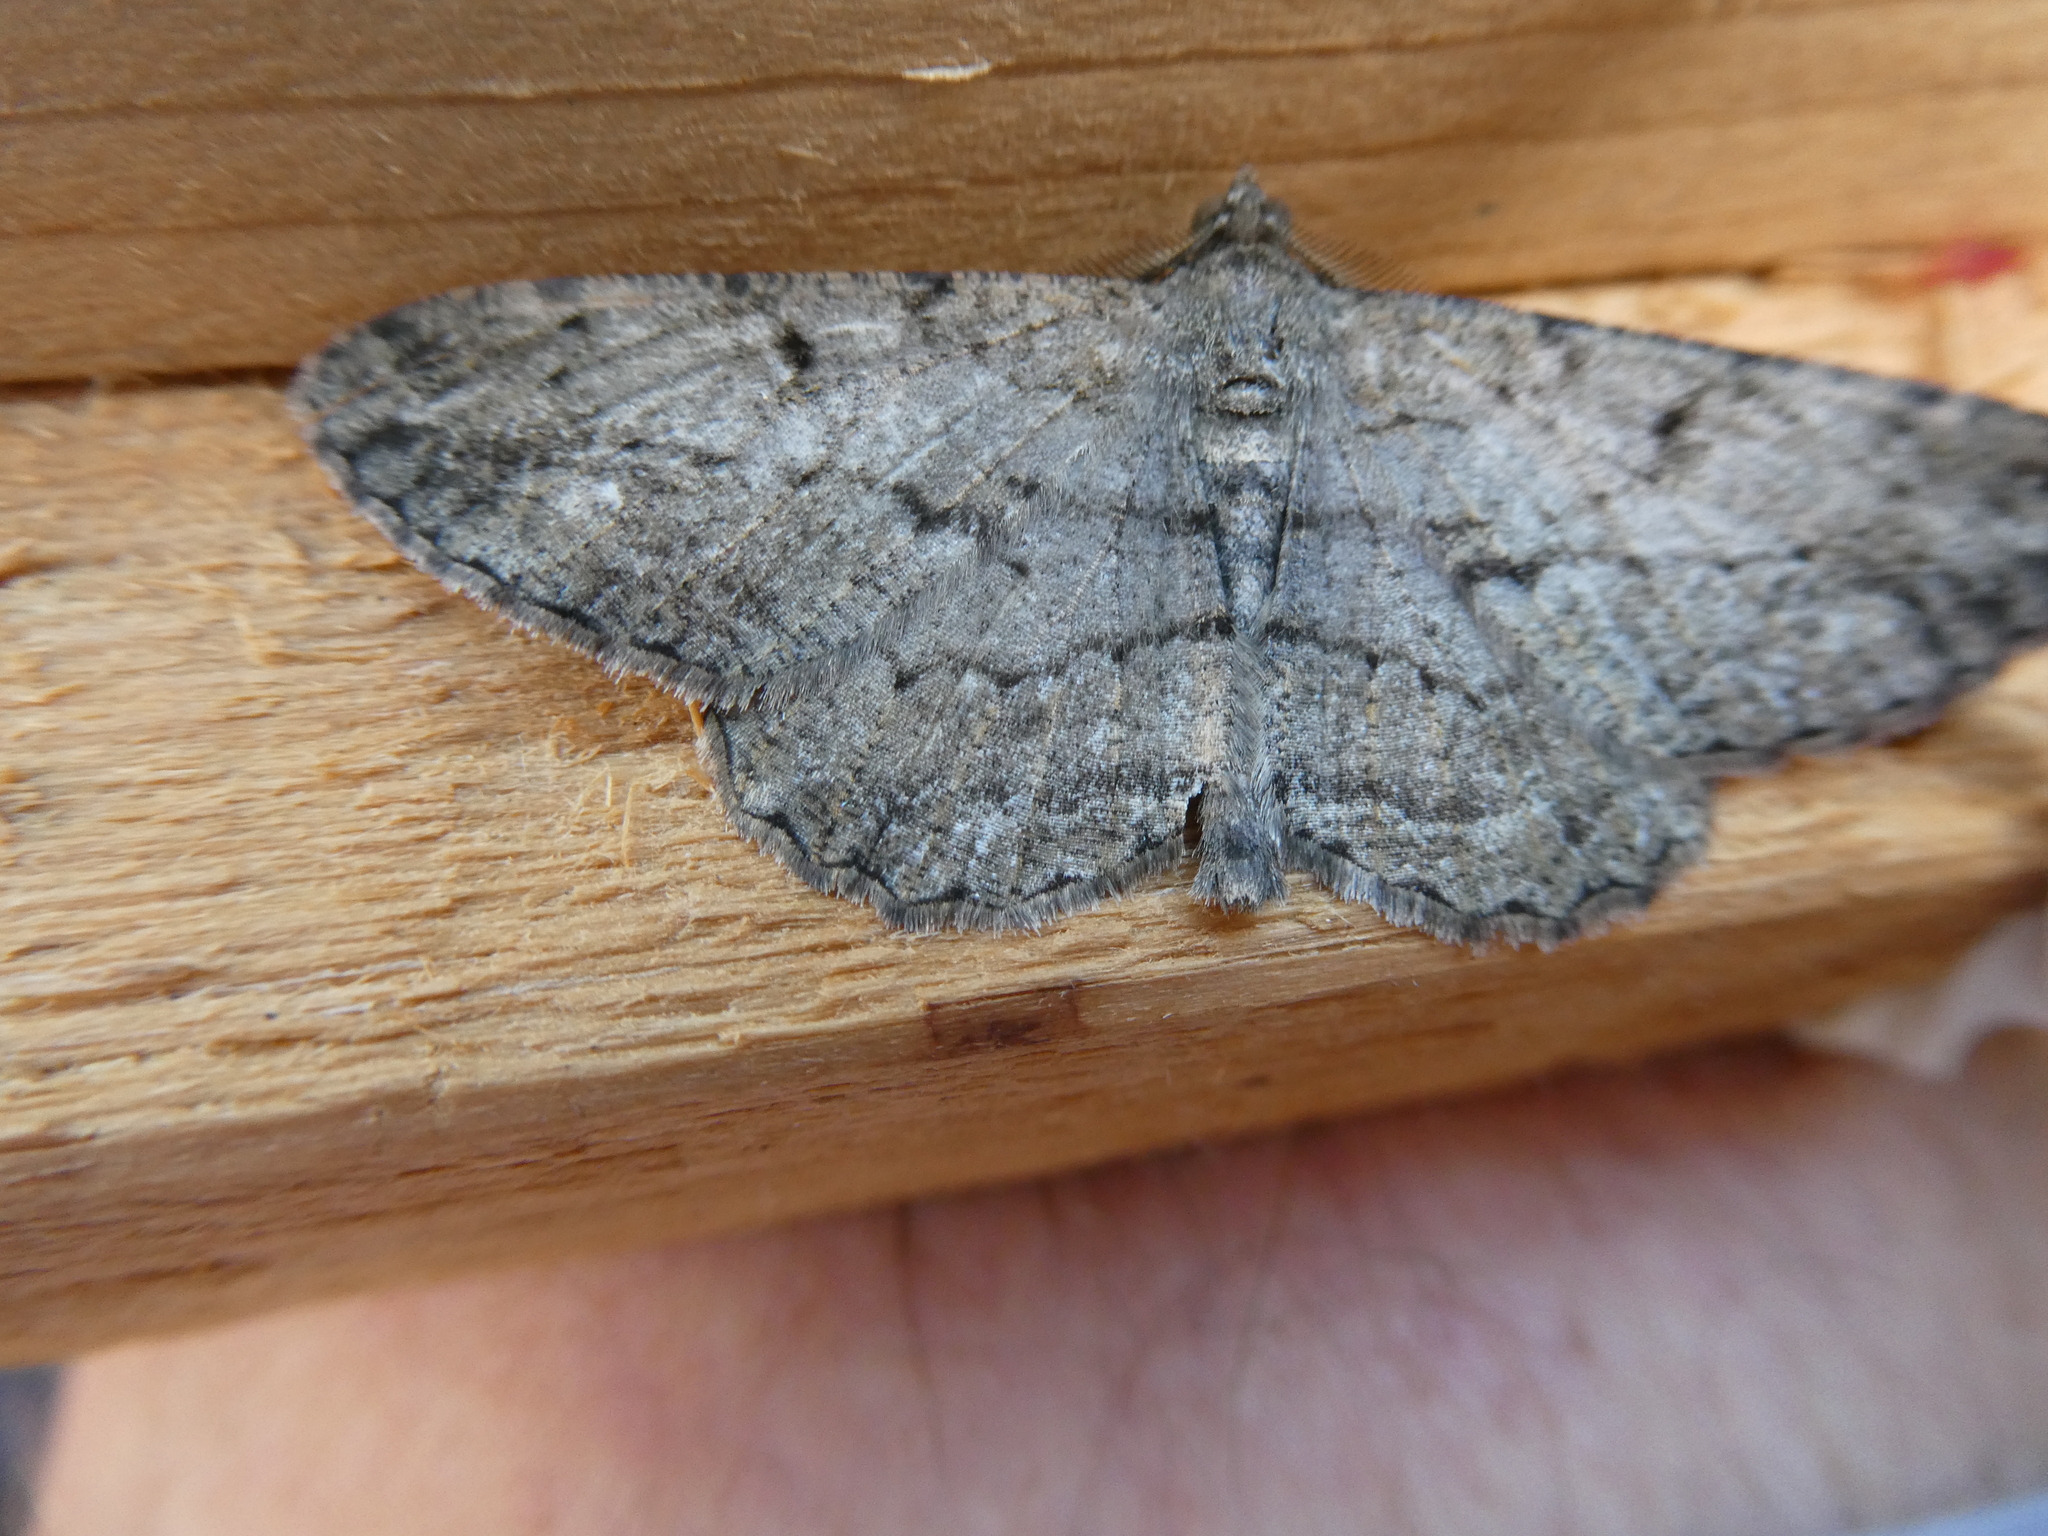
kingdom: Animalia
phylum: Arthropoda
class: Insecta
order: Lepidoptera
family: Geometridae
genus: Peribatodes
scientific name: Peribatodes rhomboidaria
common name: Willow beauty
